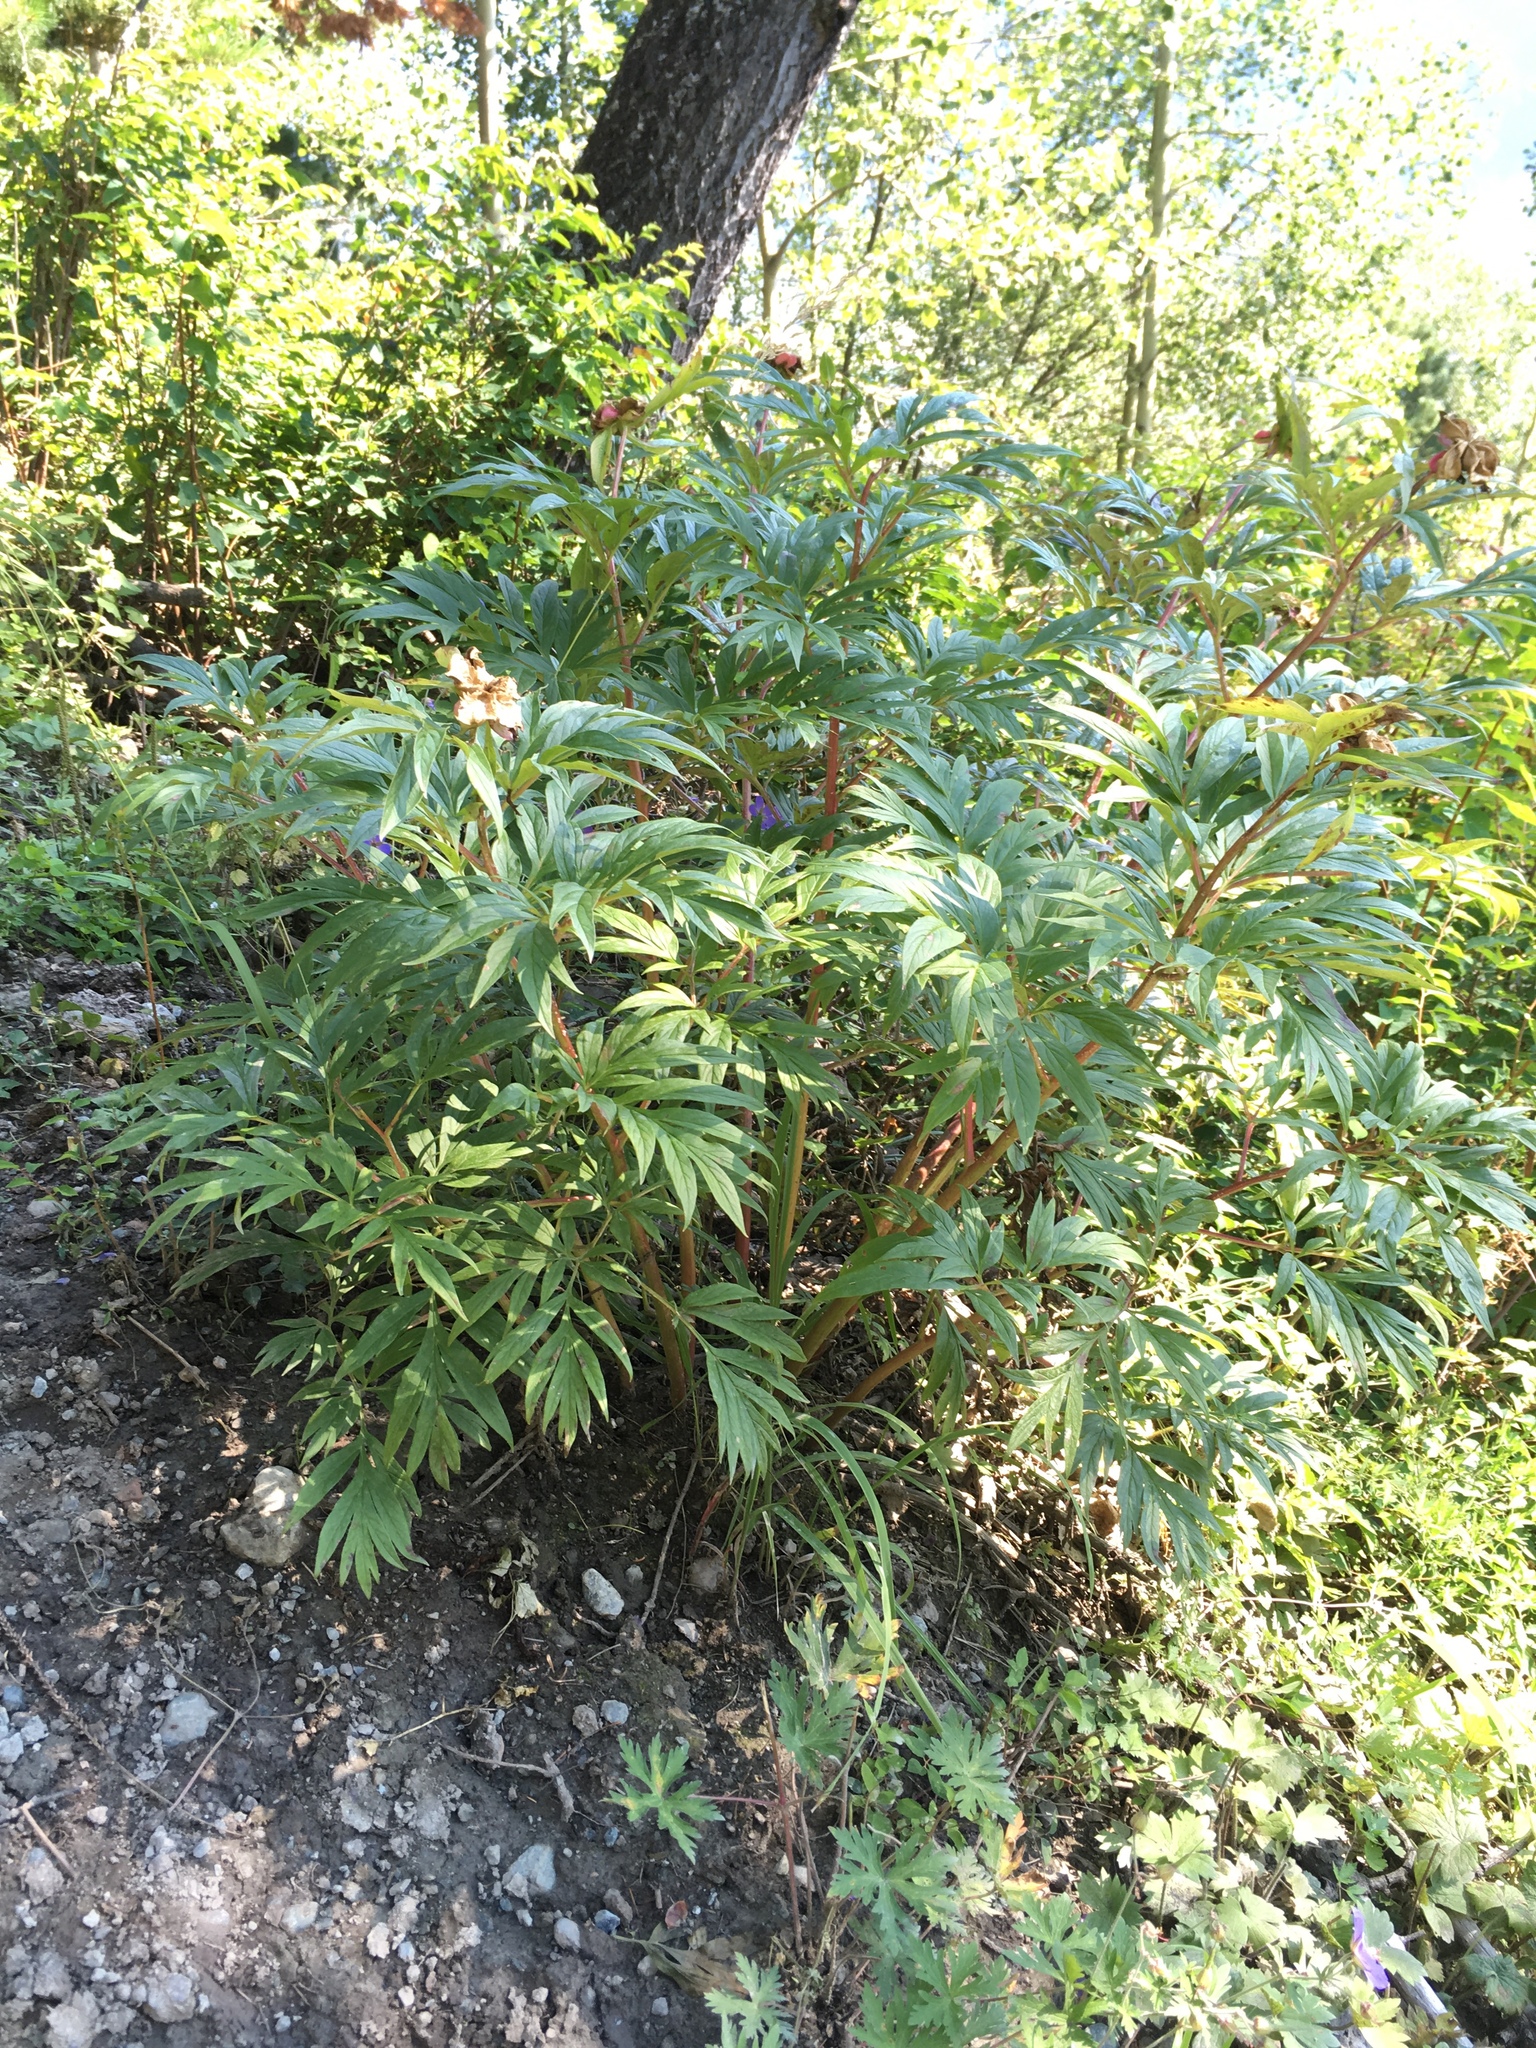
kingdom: Plantae
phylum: Tracheophyta
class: Magnoliopsida
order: Saxifragales
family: Paeoniaceae
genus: Paeonia
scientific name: Paeonia anomala
